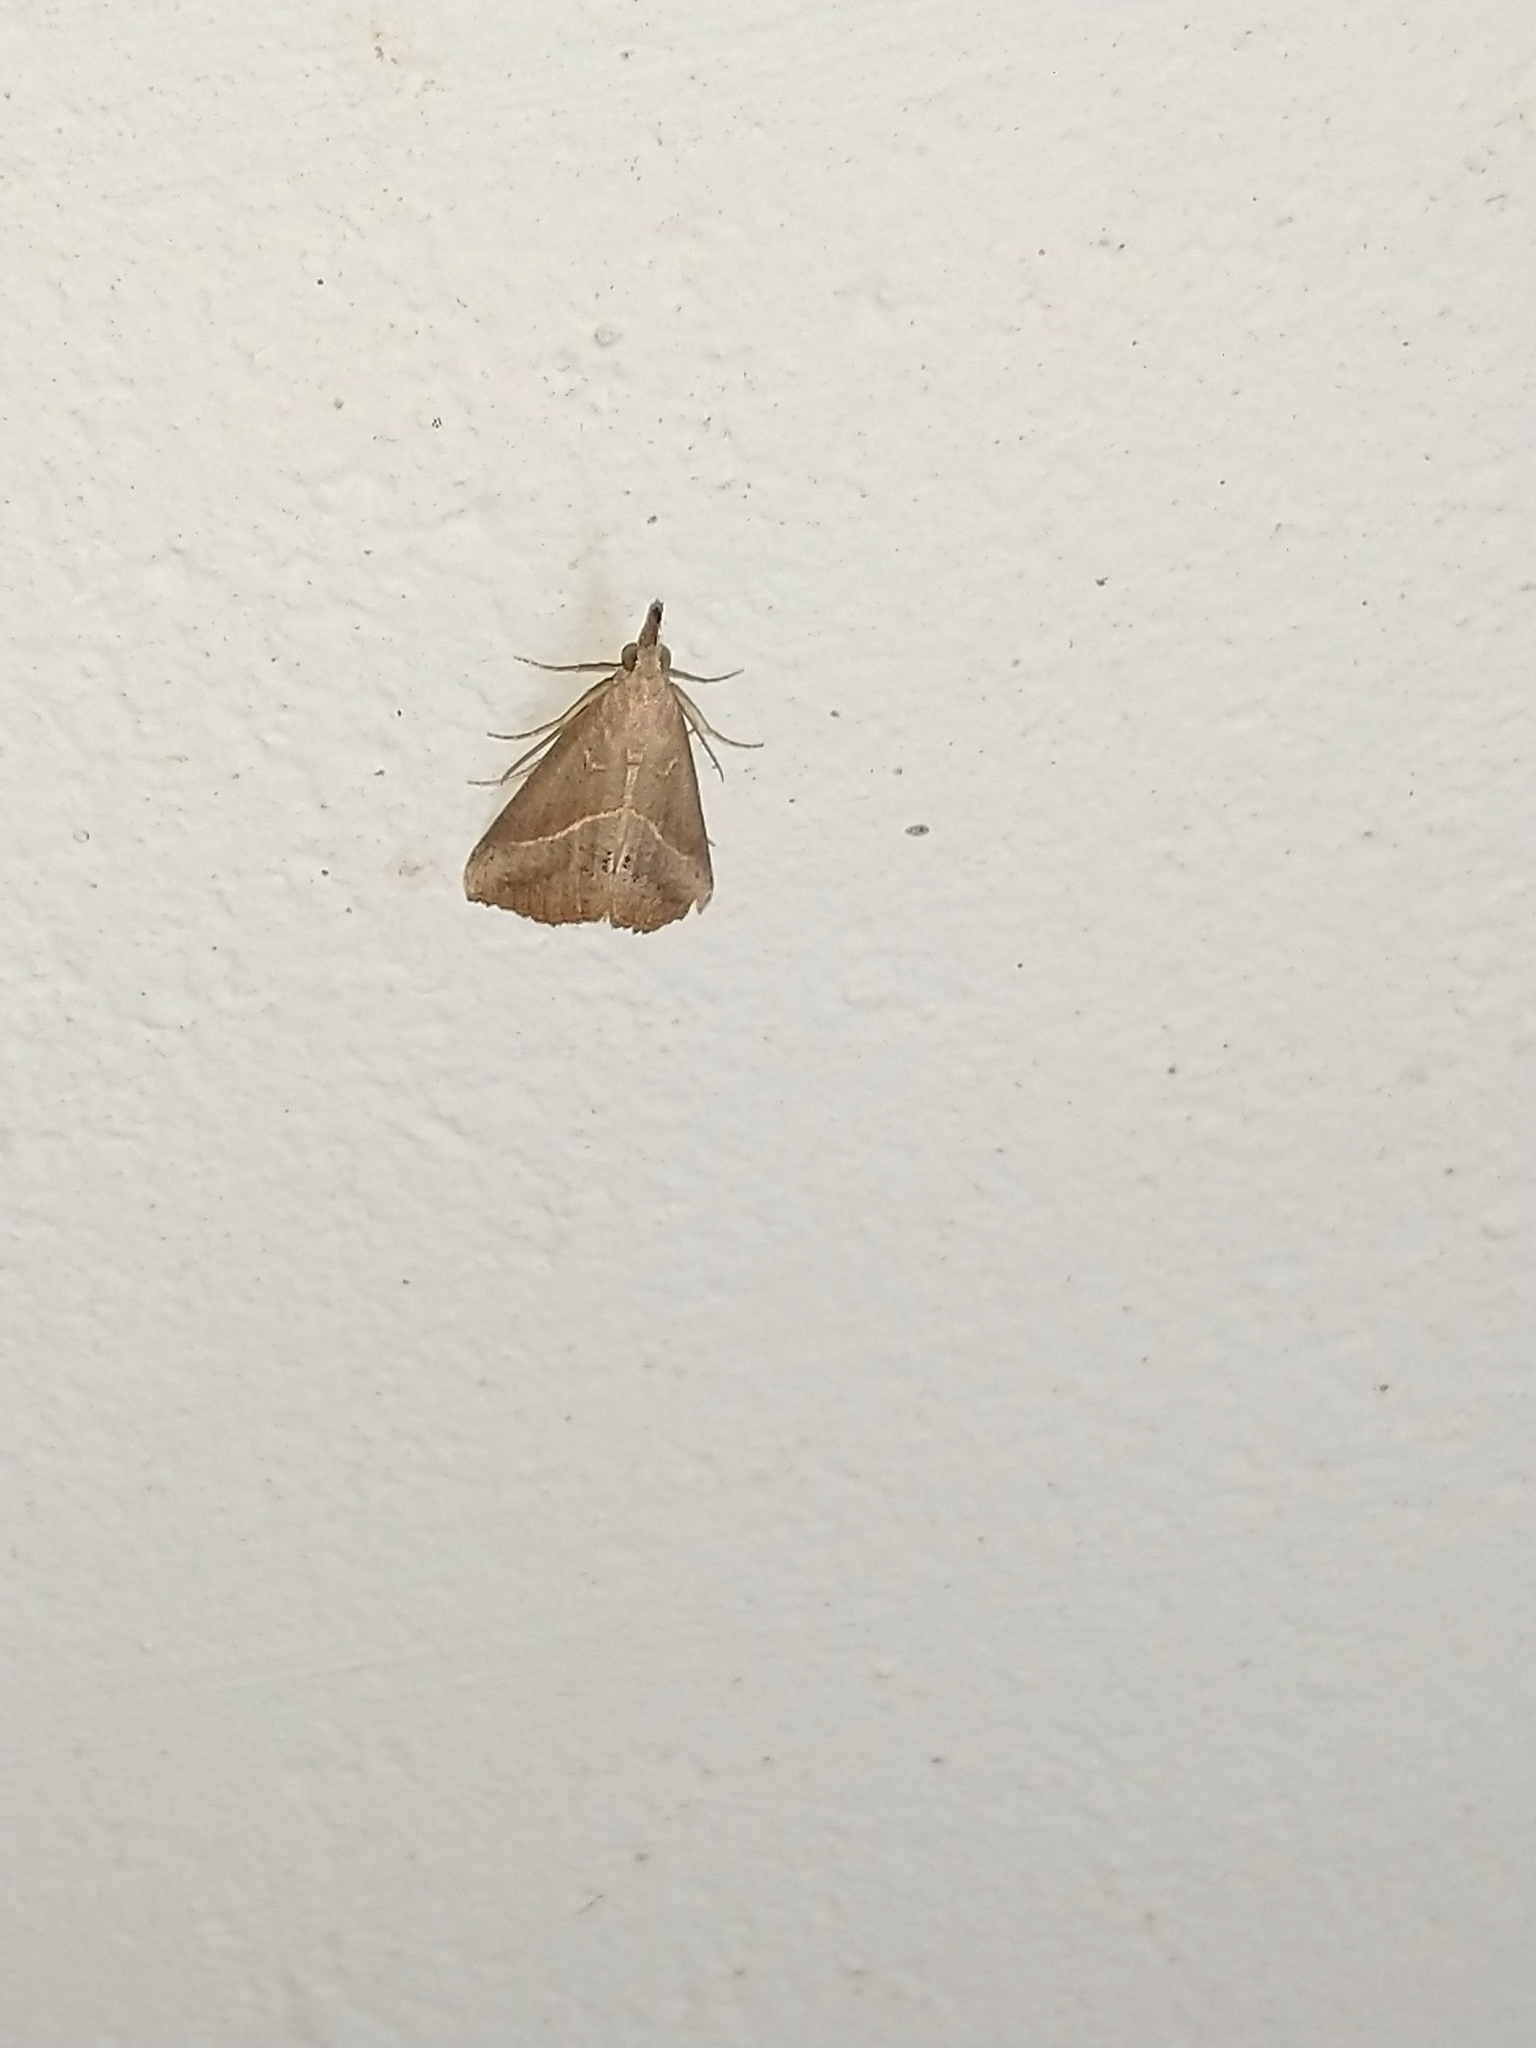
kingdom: Animalia
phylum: Arthropoda
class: Insecta
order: Lepidoptera
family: Erebidae
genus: Hypena
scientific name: Hypena lividalis
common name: Chevron snout
